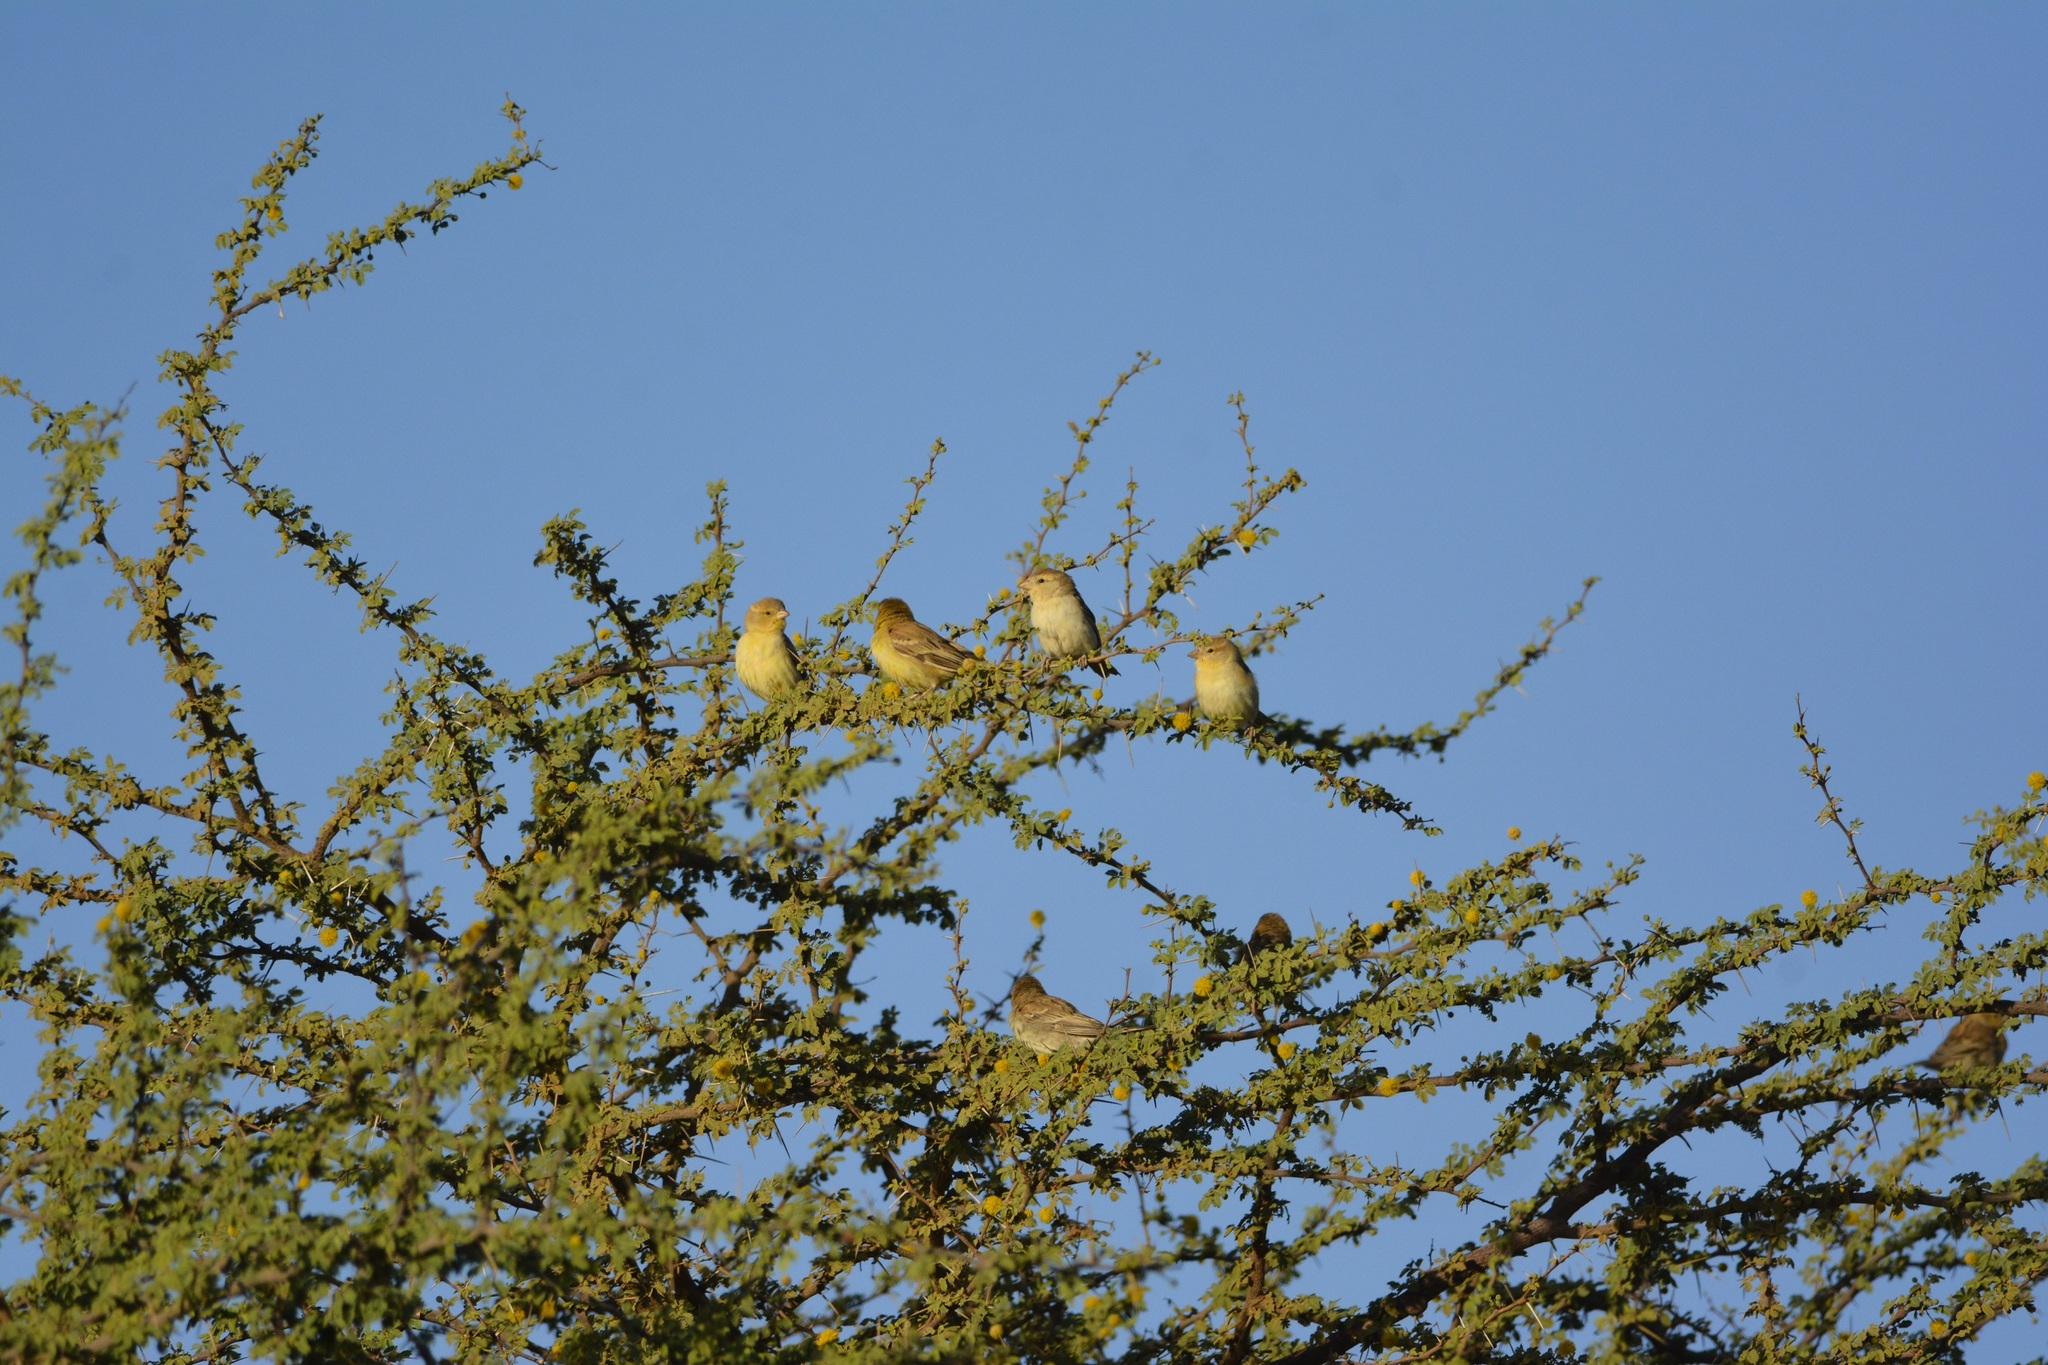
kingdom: Animalia
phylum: Chordata
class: Aves
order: Passeriformes
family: Passeridae
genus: Passer
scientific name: Passer luteus
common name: Sudan golden sparrow
